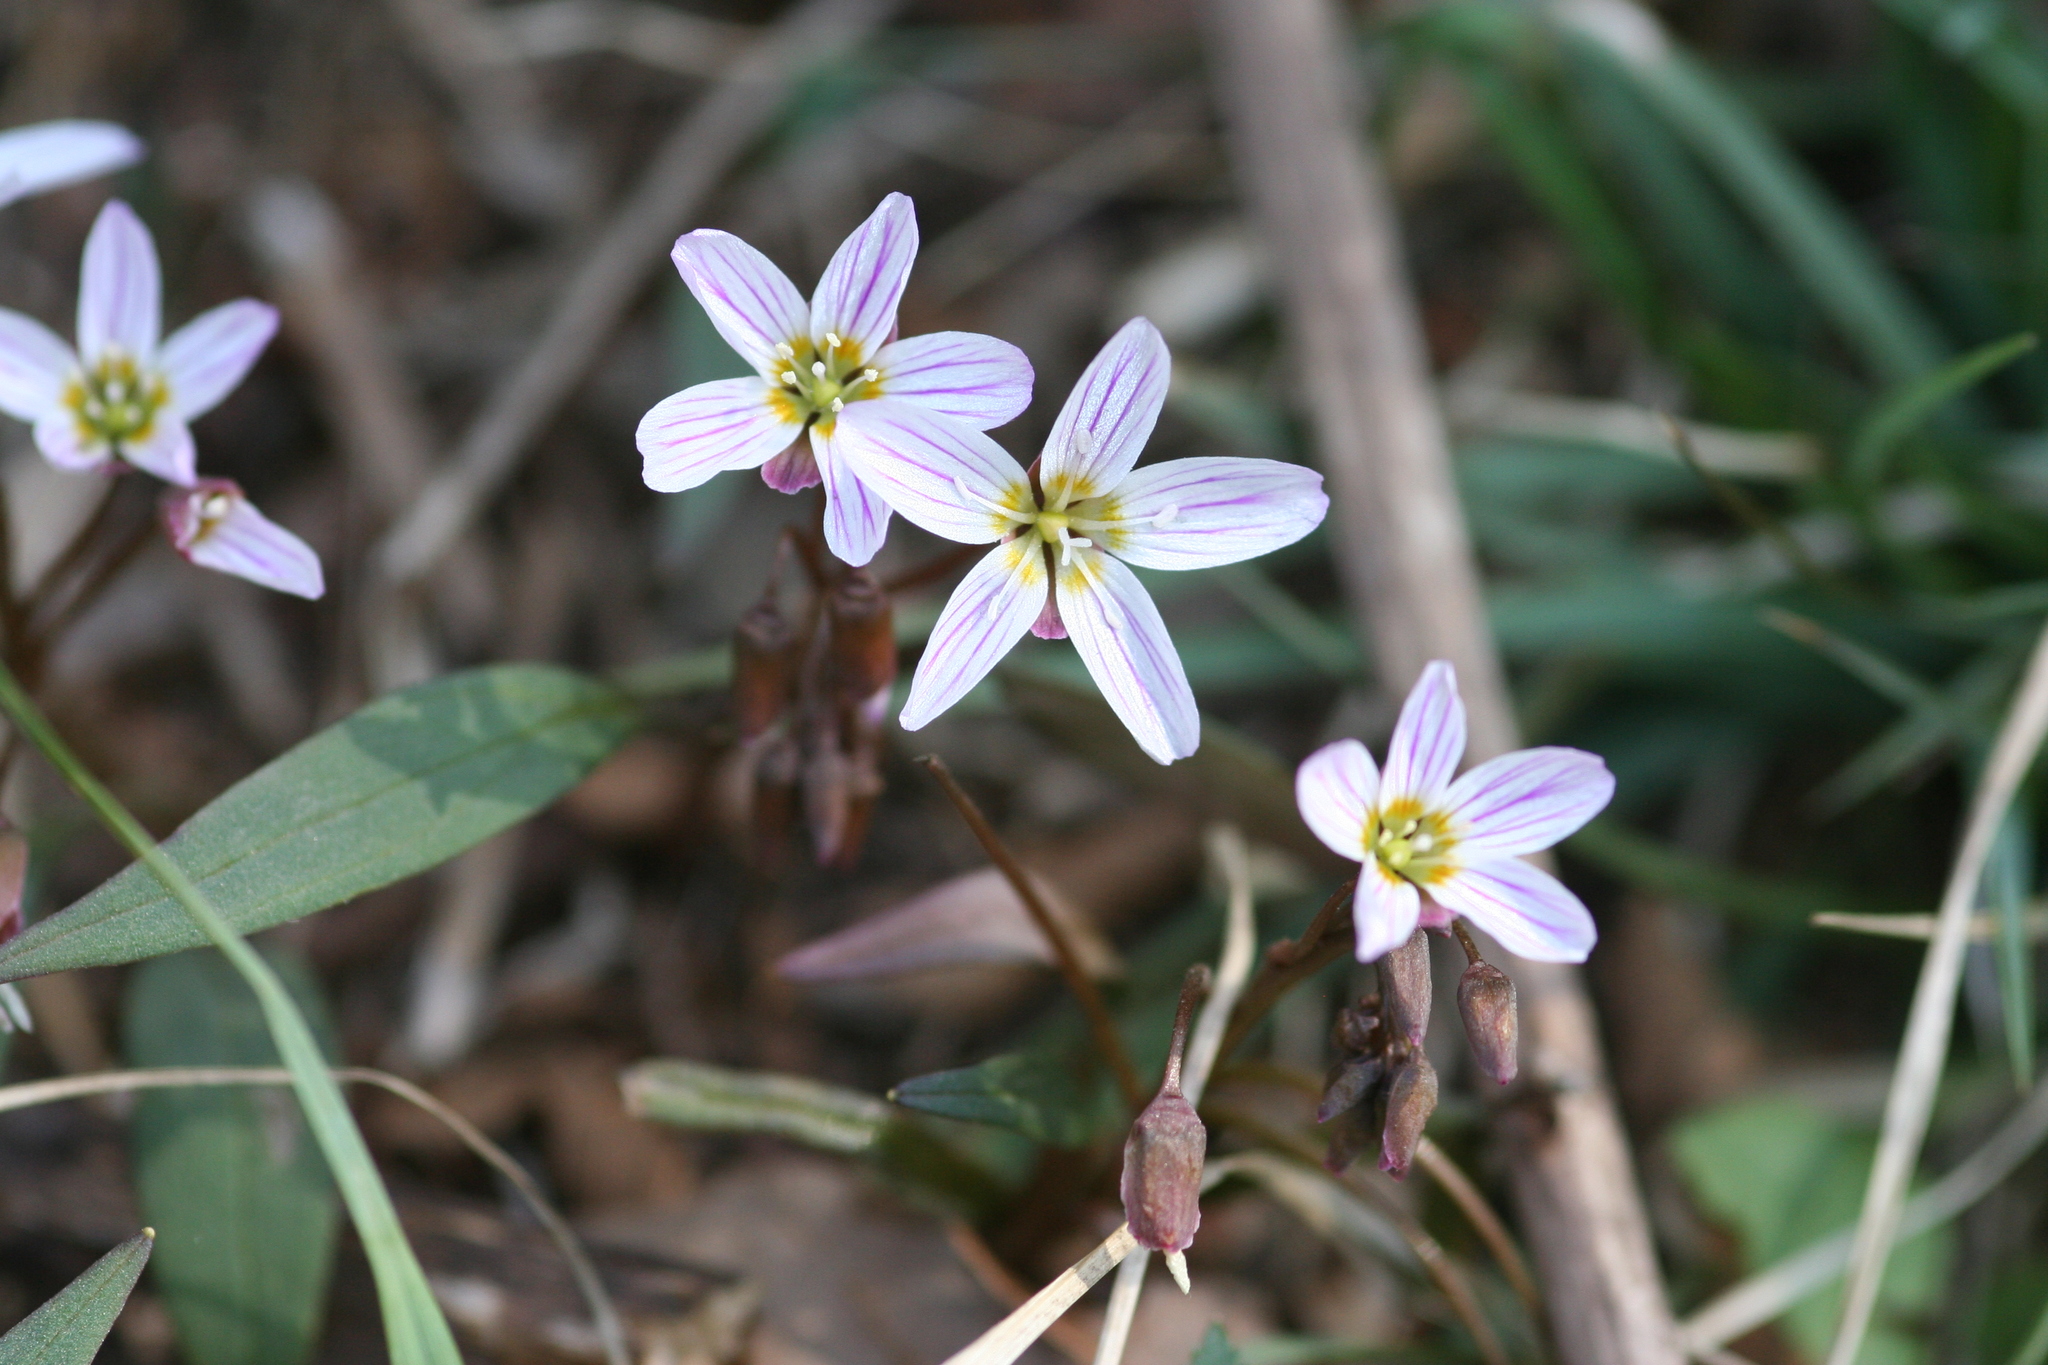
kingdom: Plantae
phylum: Tracheophyta
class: Magnoliopsida
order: Caryophyllales
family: Montiaceae
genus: Claytonia
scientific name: Claytonia caroliniana
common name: Carolina spring beauty
